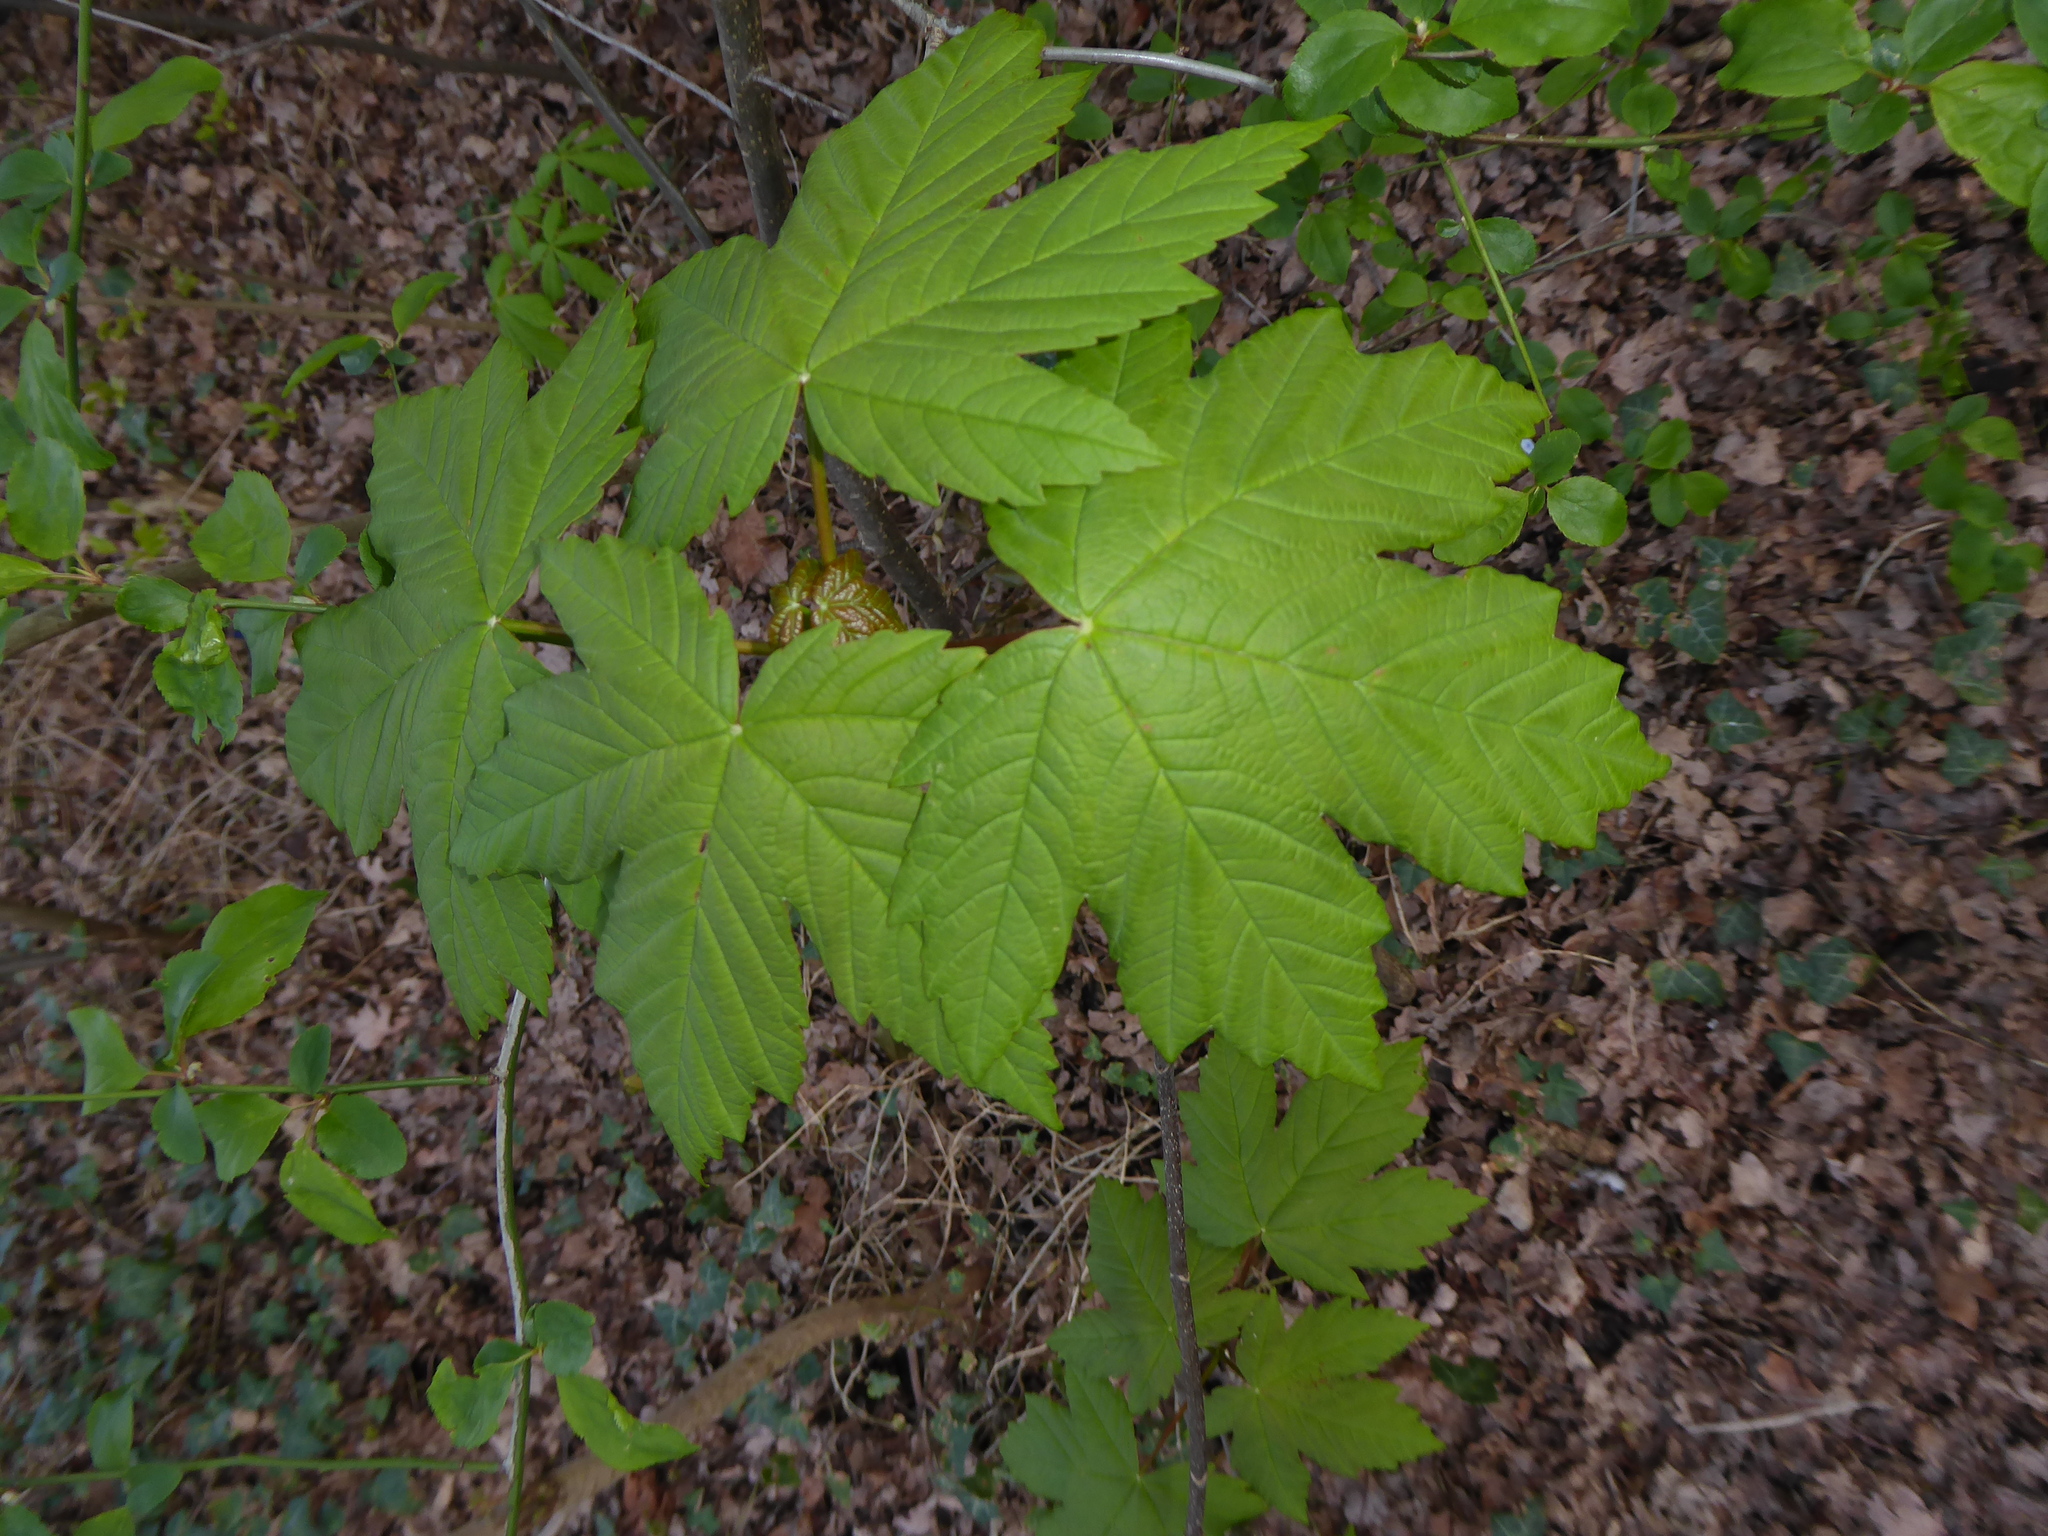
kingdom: Plantae
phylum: Tracheophyta
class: Magnoliopsida
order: Sapindales
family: Sapindaceae
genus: Acer
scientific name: Acer pseudoplatanus
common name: Sycamore
